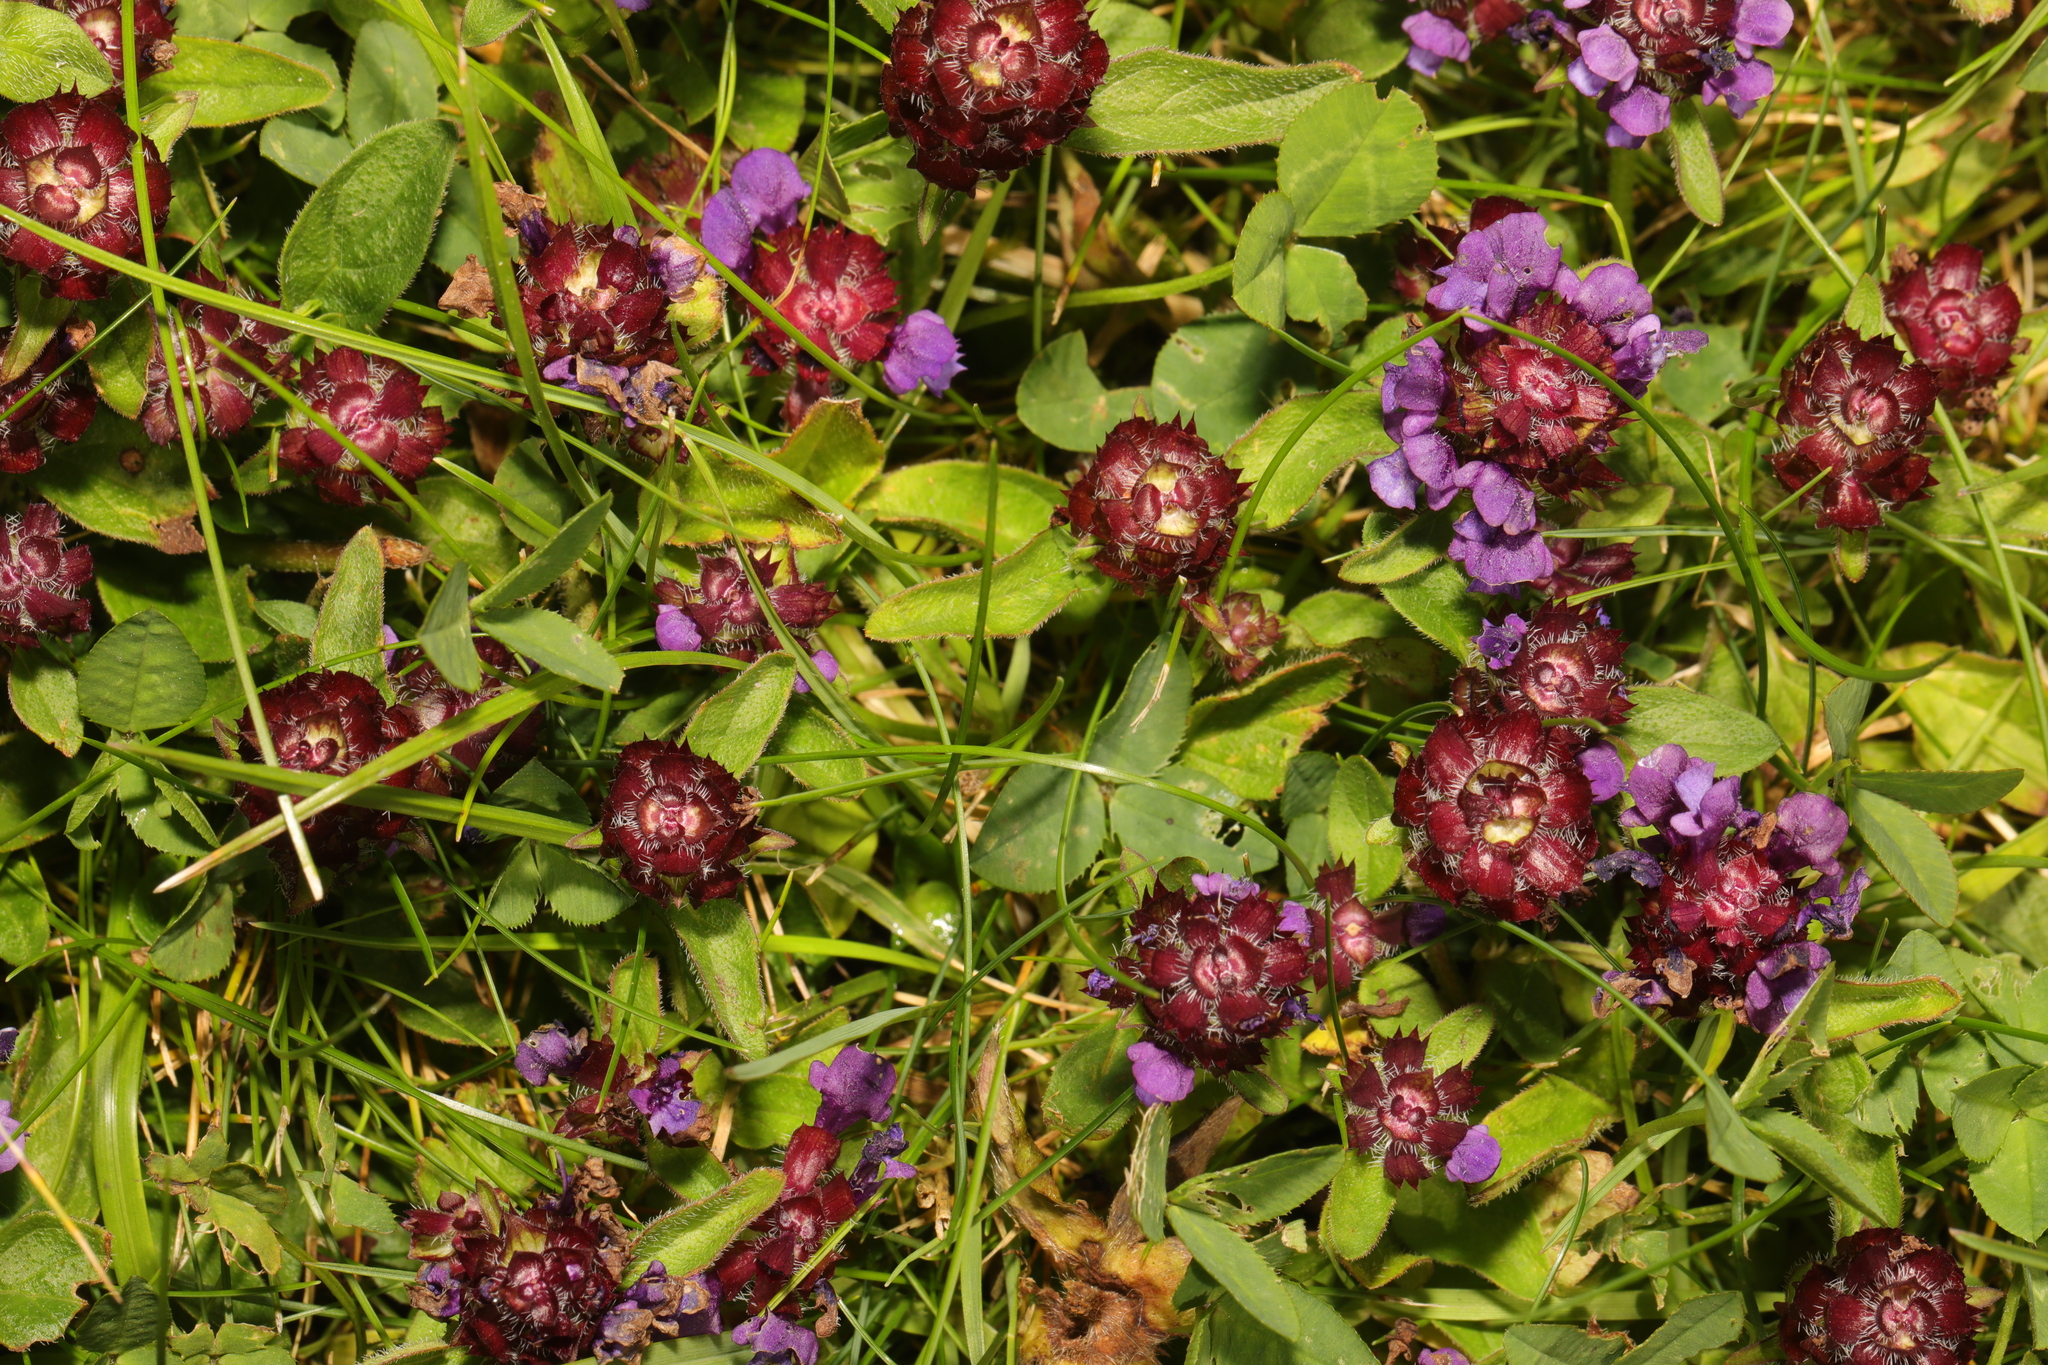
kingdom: Plantae
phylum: Tracheophyta
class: Magnoliopsida
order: Lamiales
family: Lamiaceae
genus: Prunella
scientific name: Prunella vulgaris
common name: Heal-all
